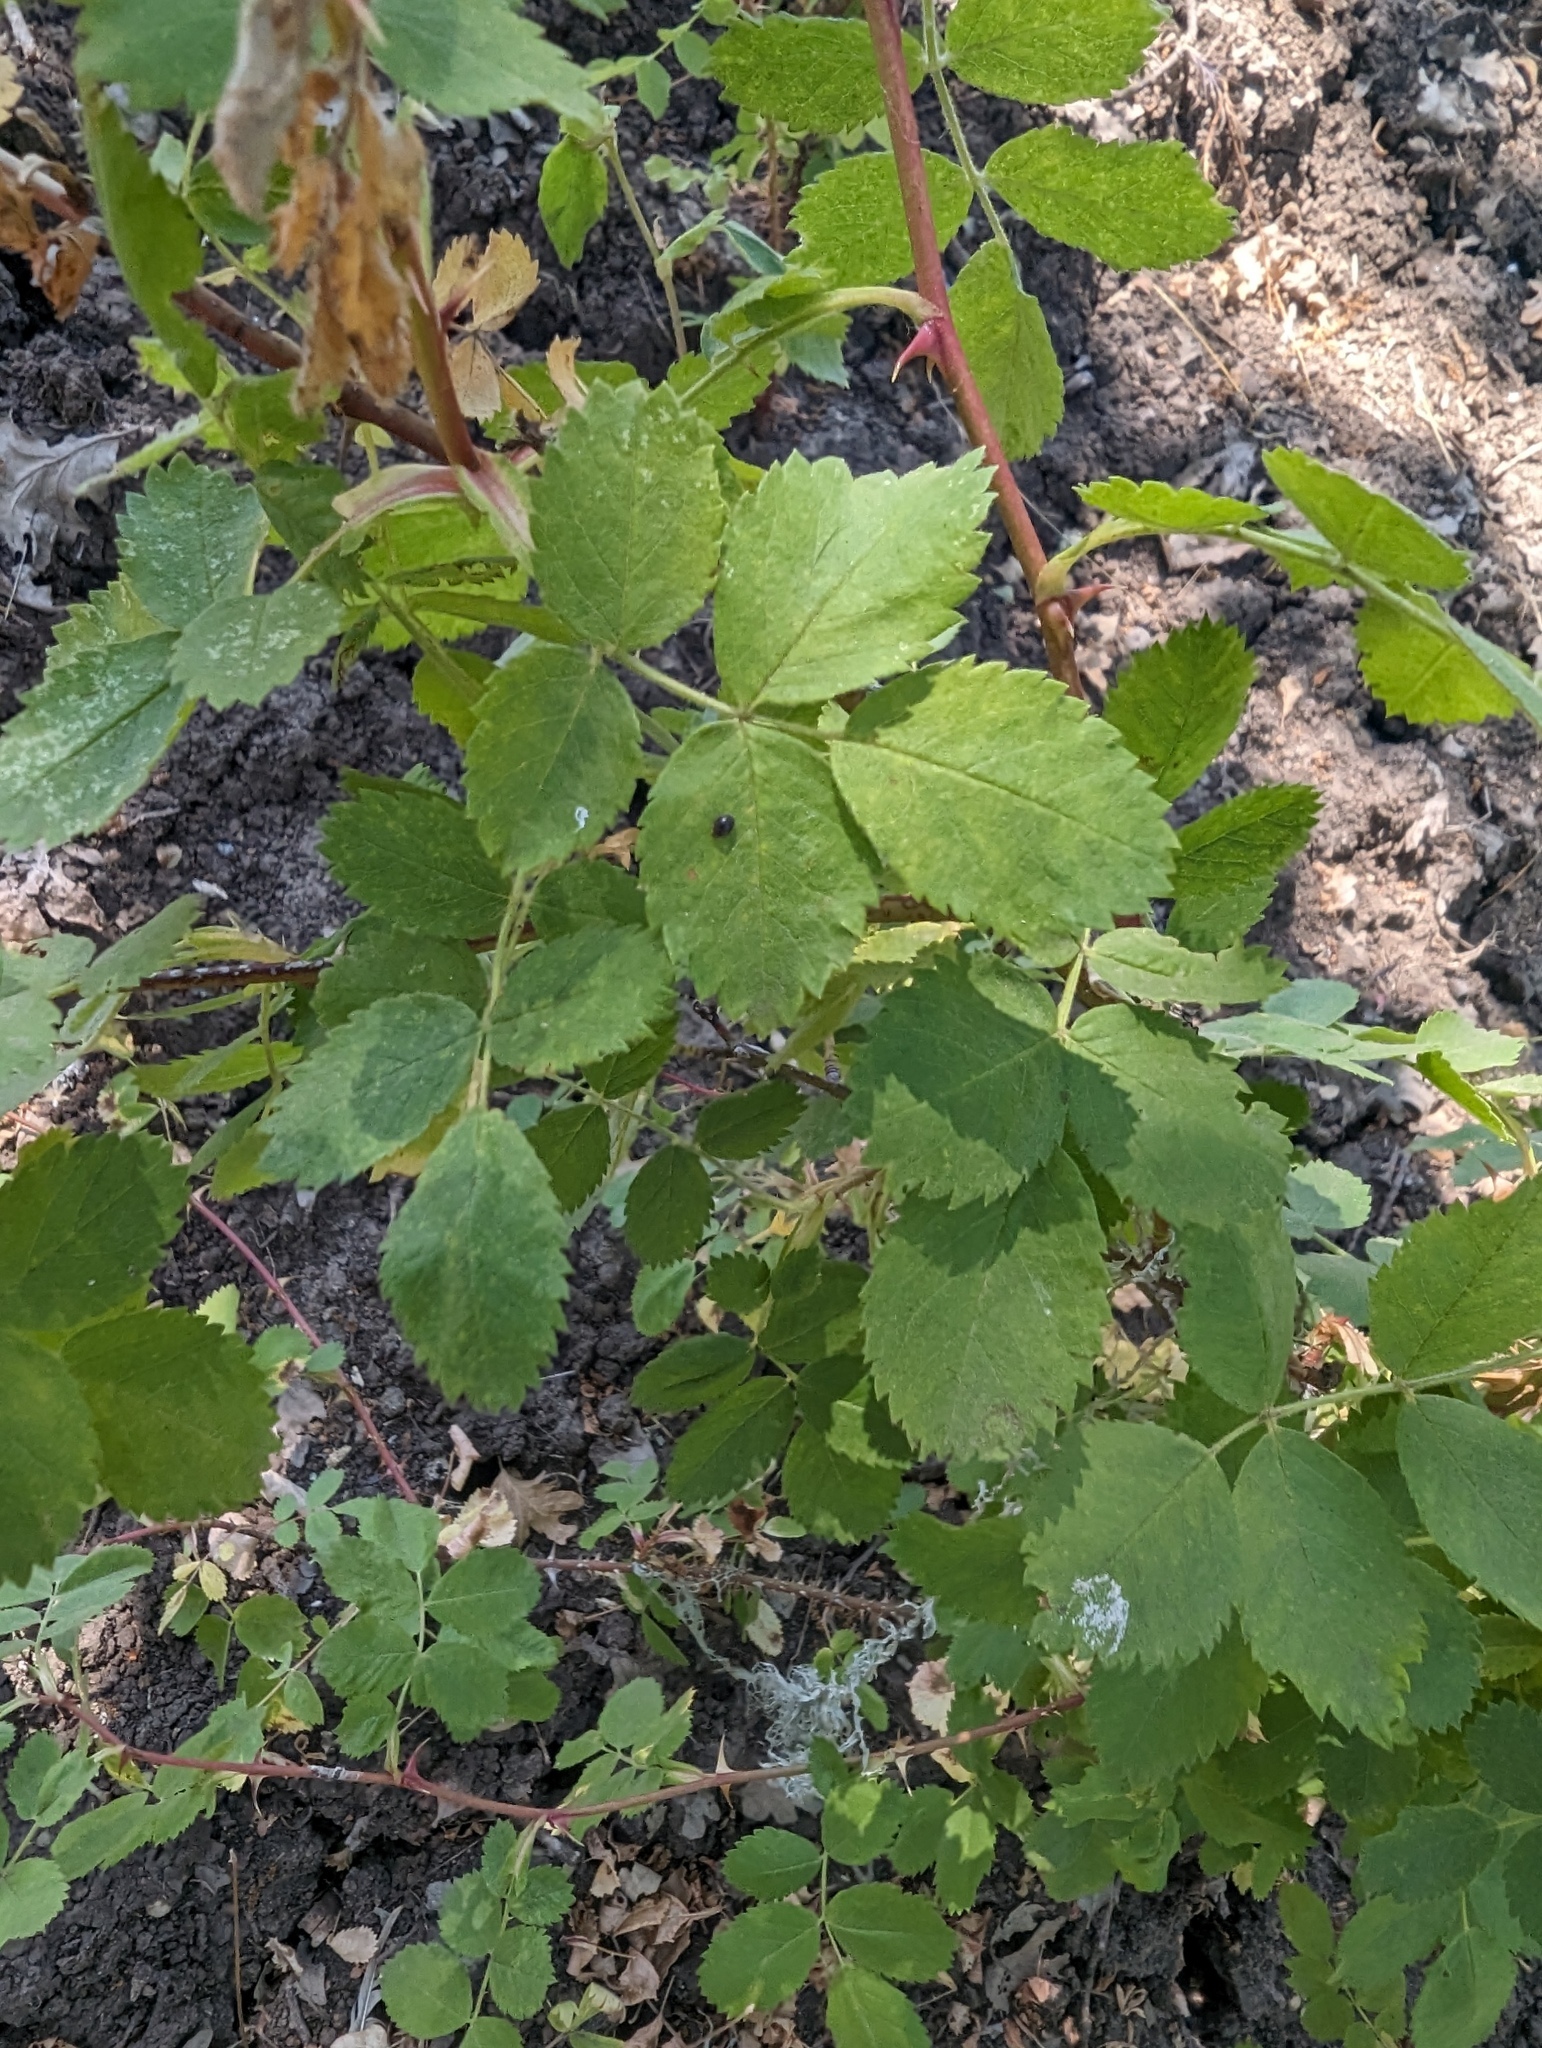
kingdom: Plantae
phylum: Tracheophyta
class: Magnoliopsida
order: Rosales
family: Rosaceae
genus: Rosa
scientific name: Rosa californica
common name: California rose
